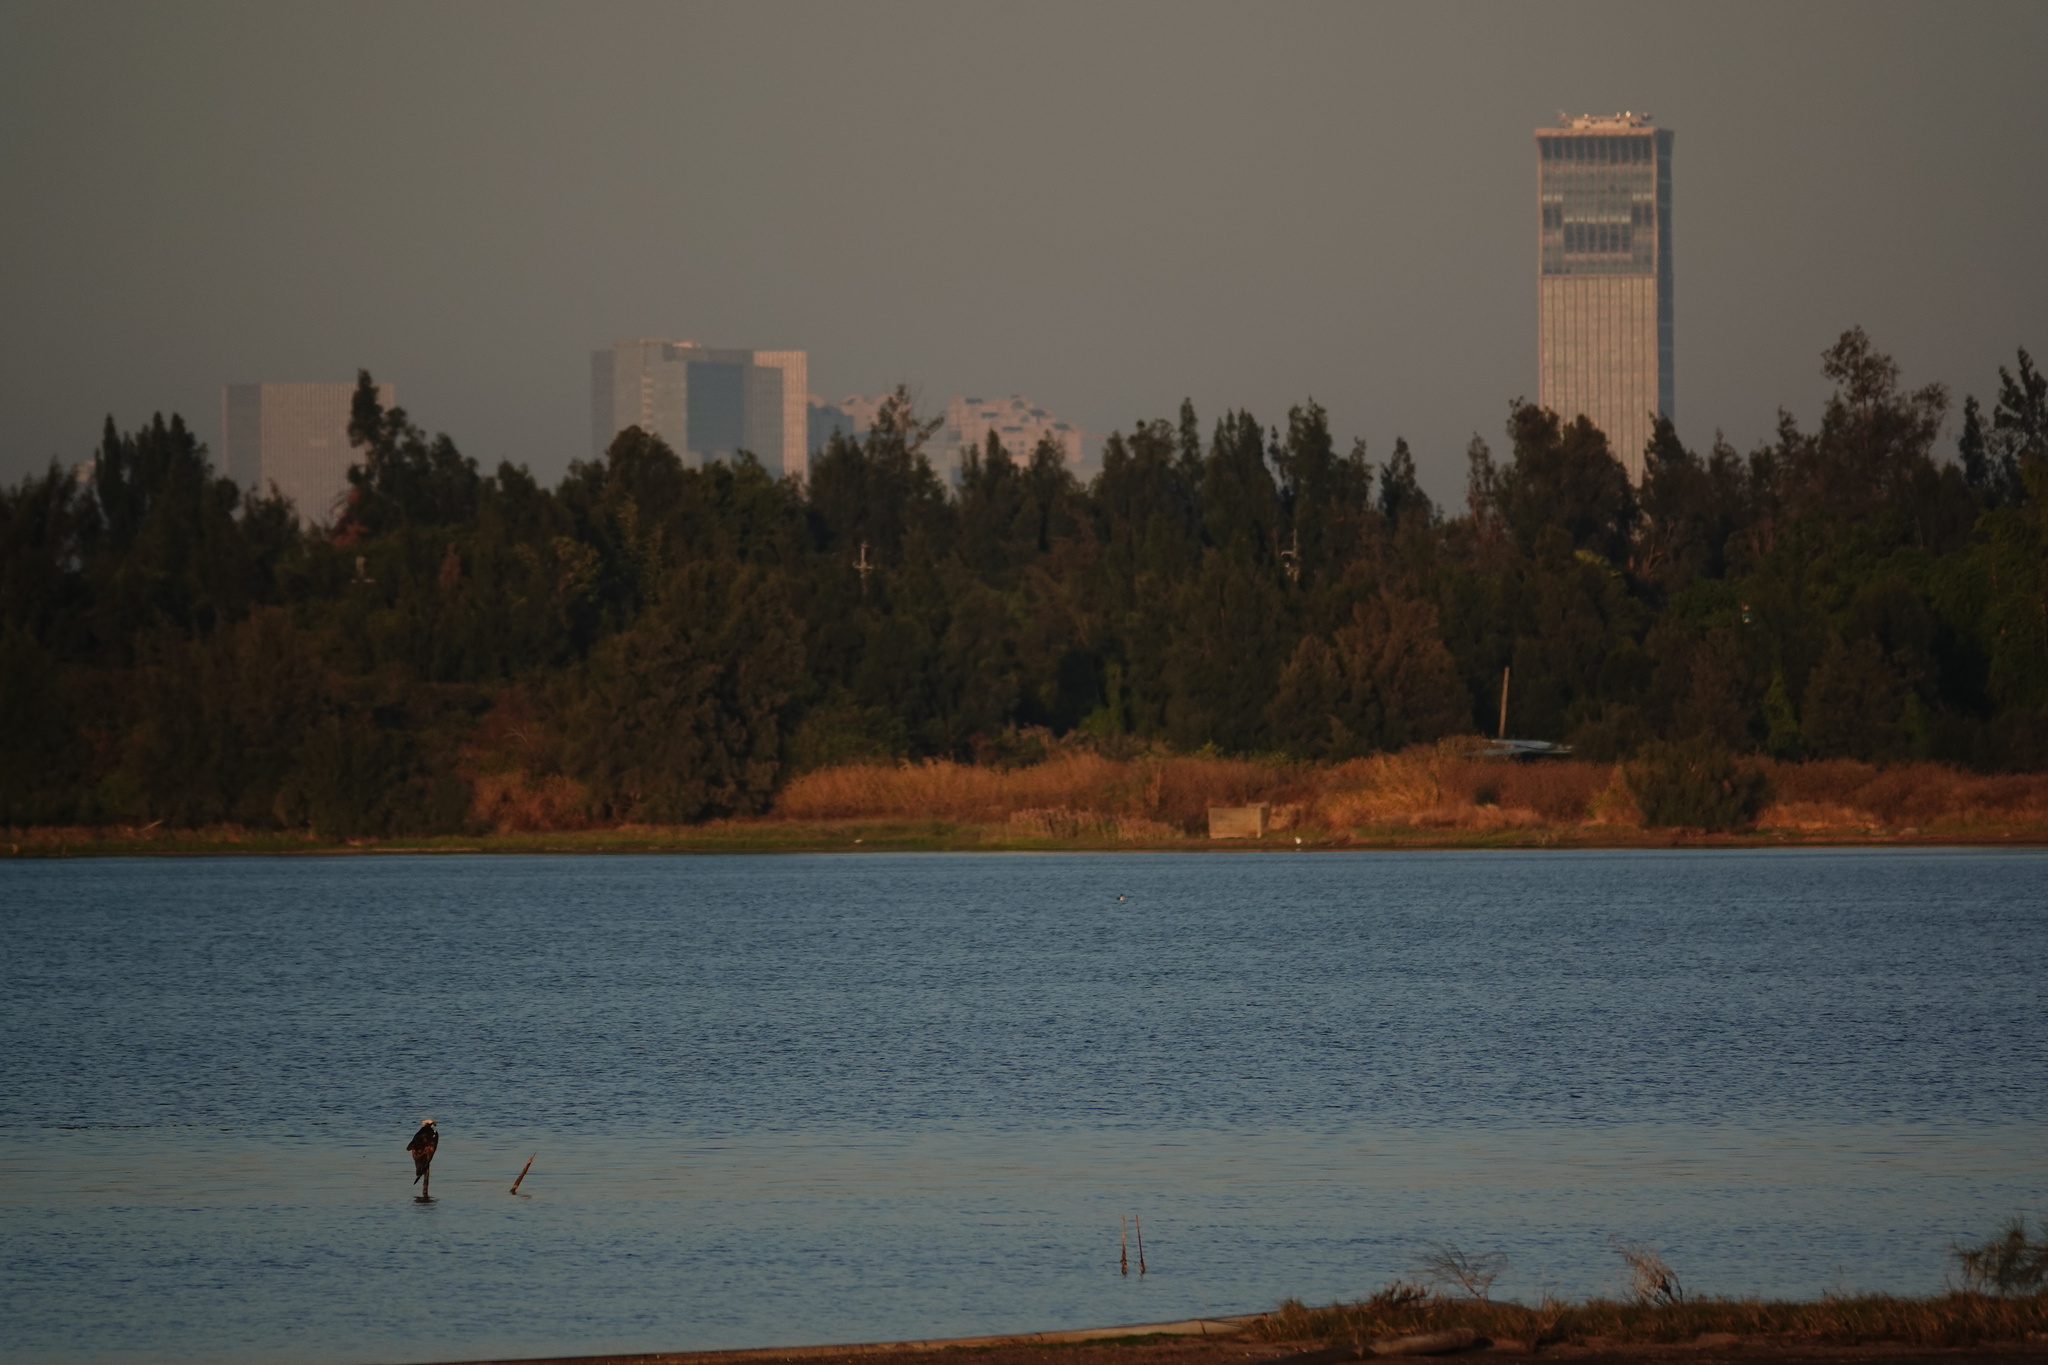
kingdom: Animalia
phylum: Chordata
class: Aves
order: Accipitriformes
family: Pandionidae
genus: Pandion
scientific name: Pandion haliaetus
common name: Osprey
